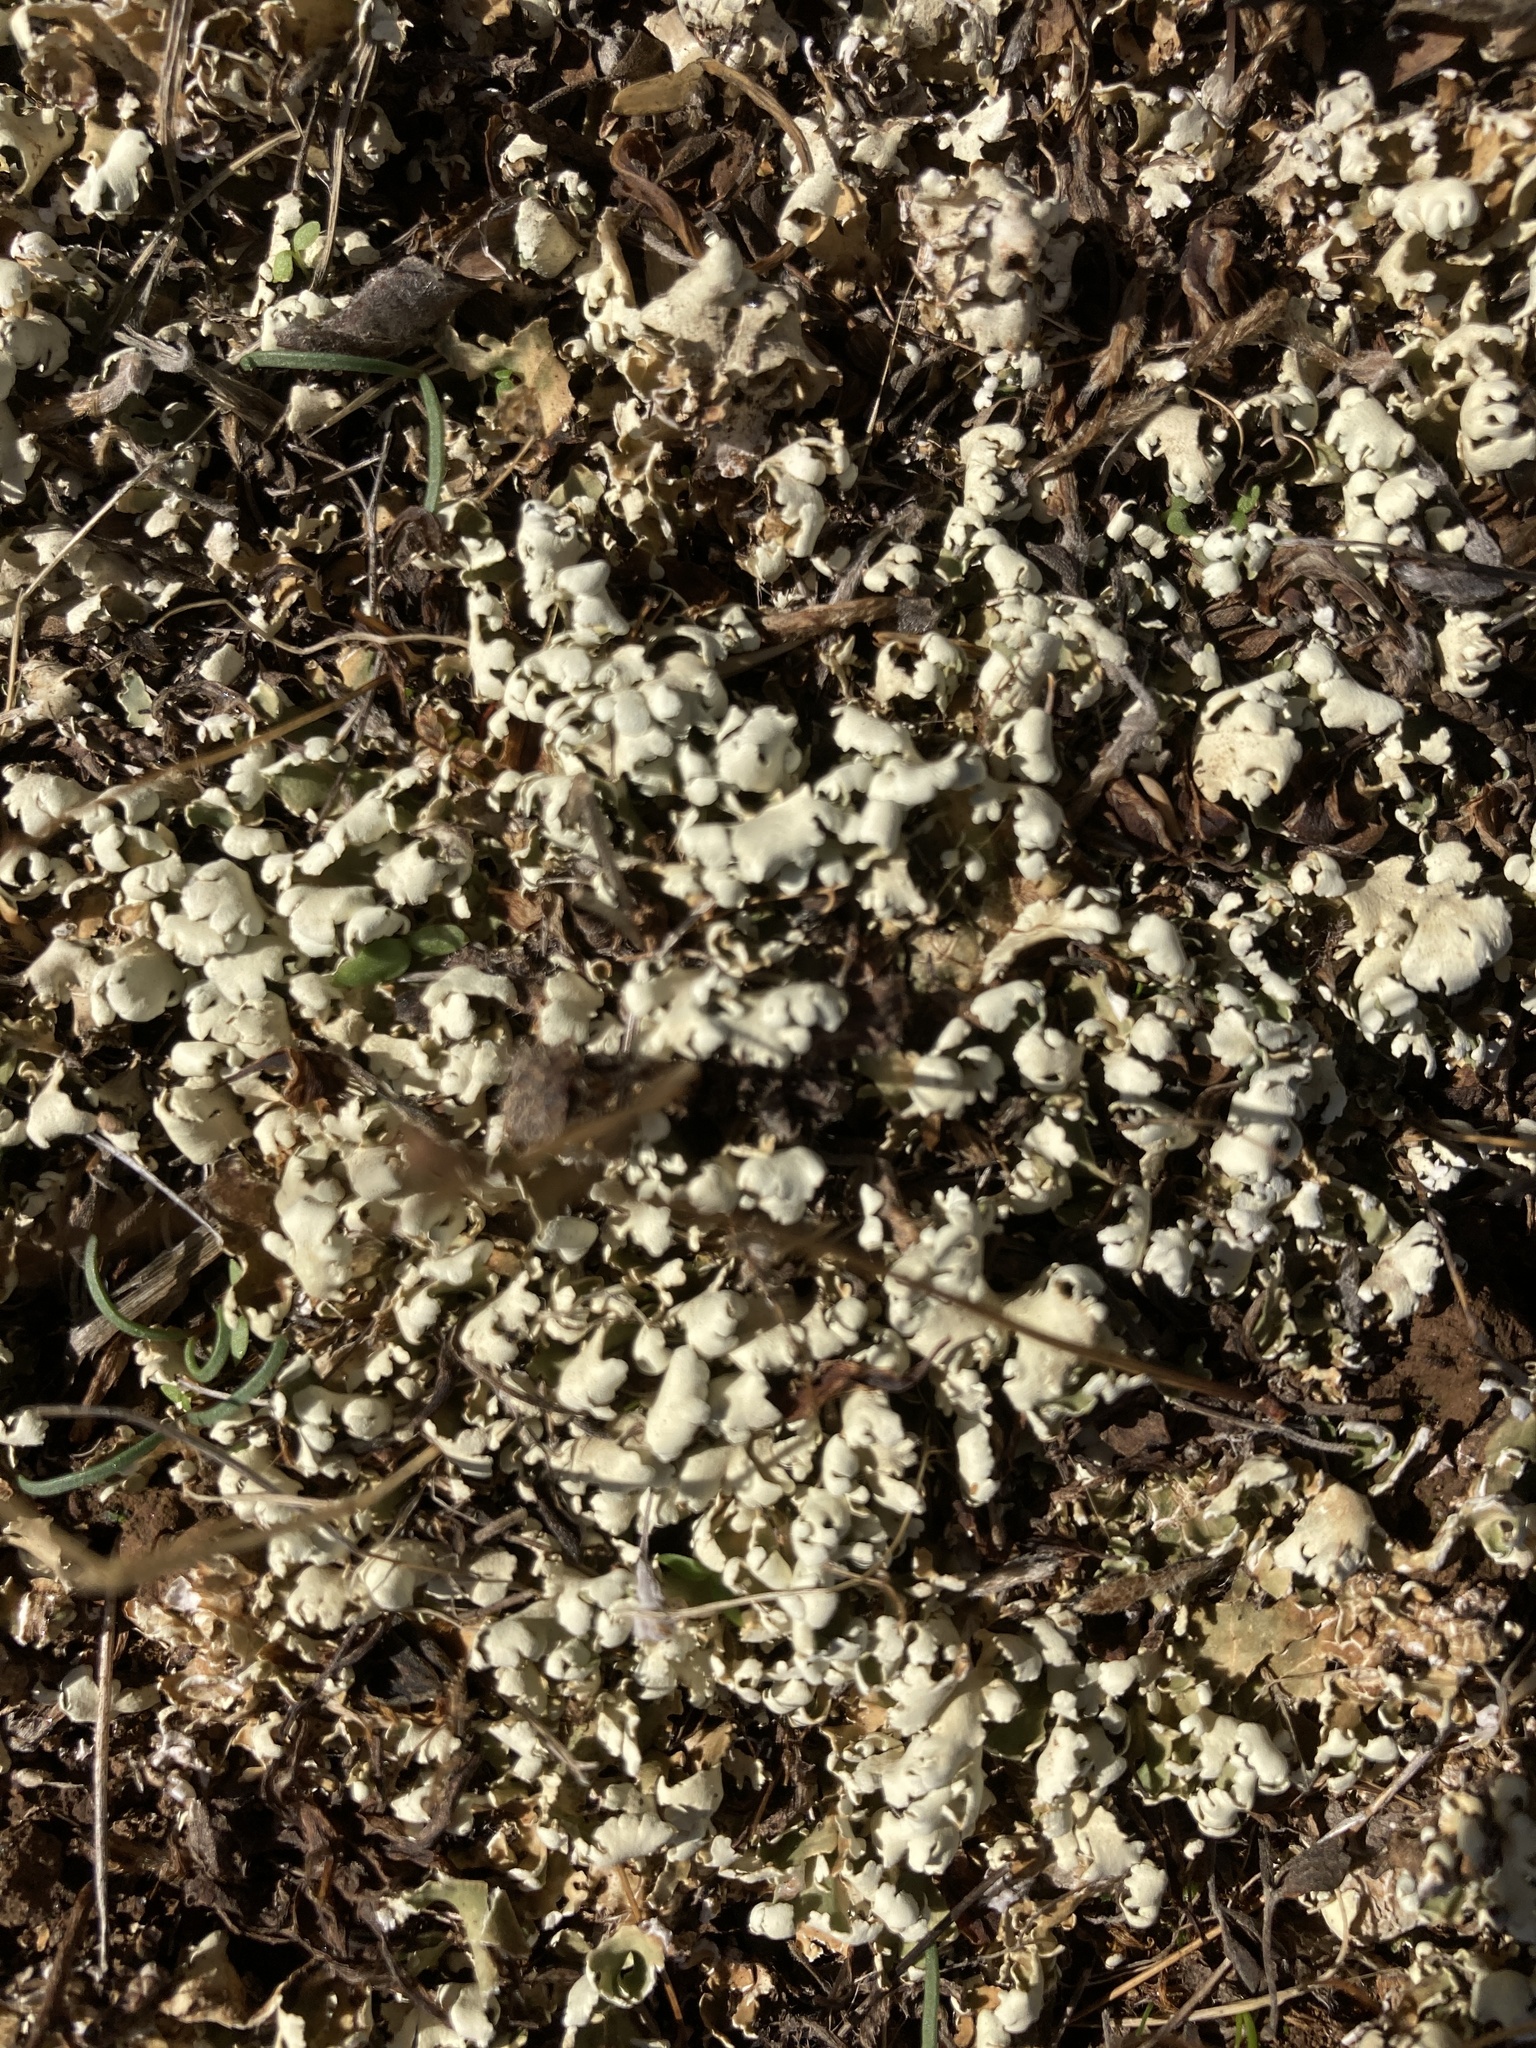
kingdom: Fungi
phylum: Ascomycota
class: Lecanoromycetes
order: Lecanorales
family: Cladoniaceae
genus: Cladonia
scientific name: Cladonia foliacea
